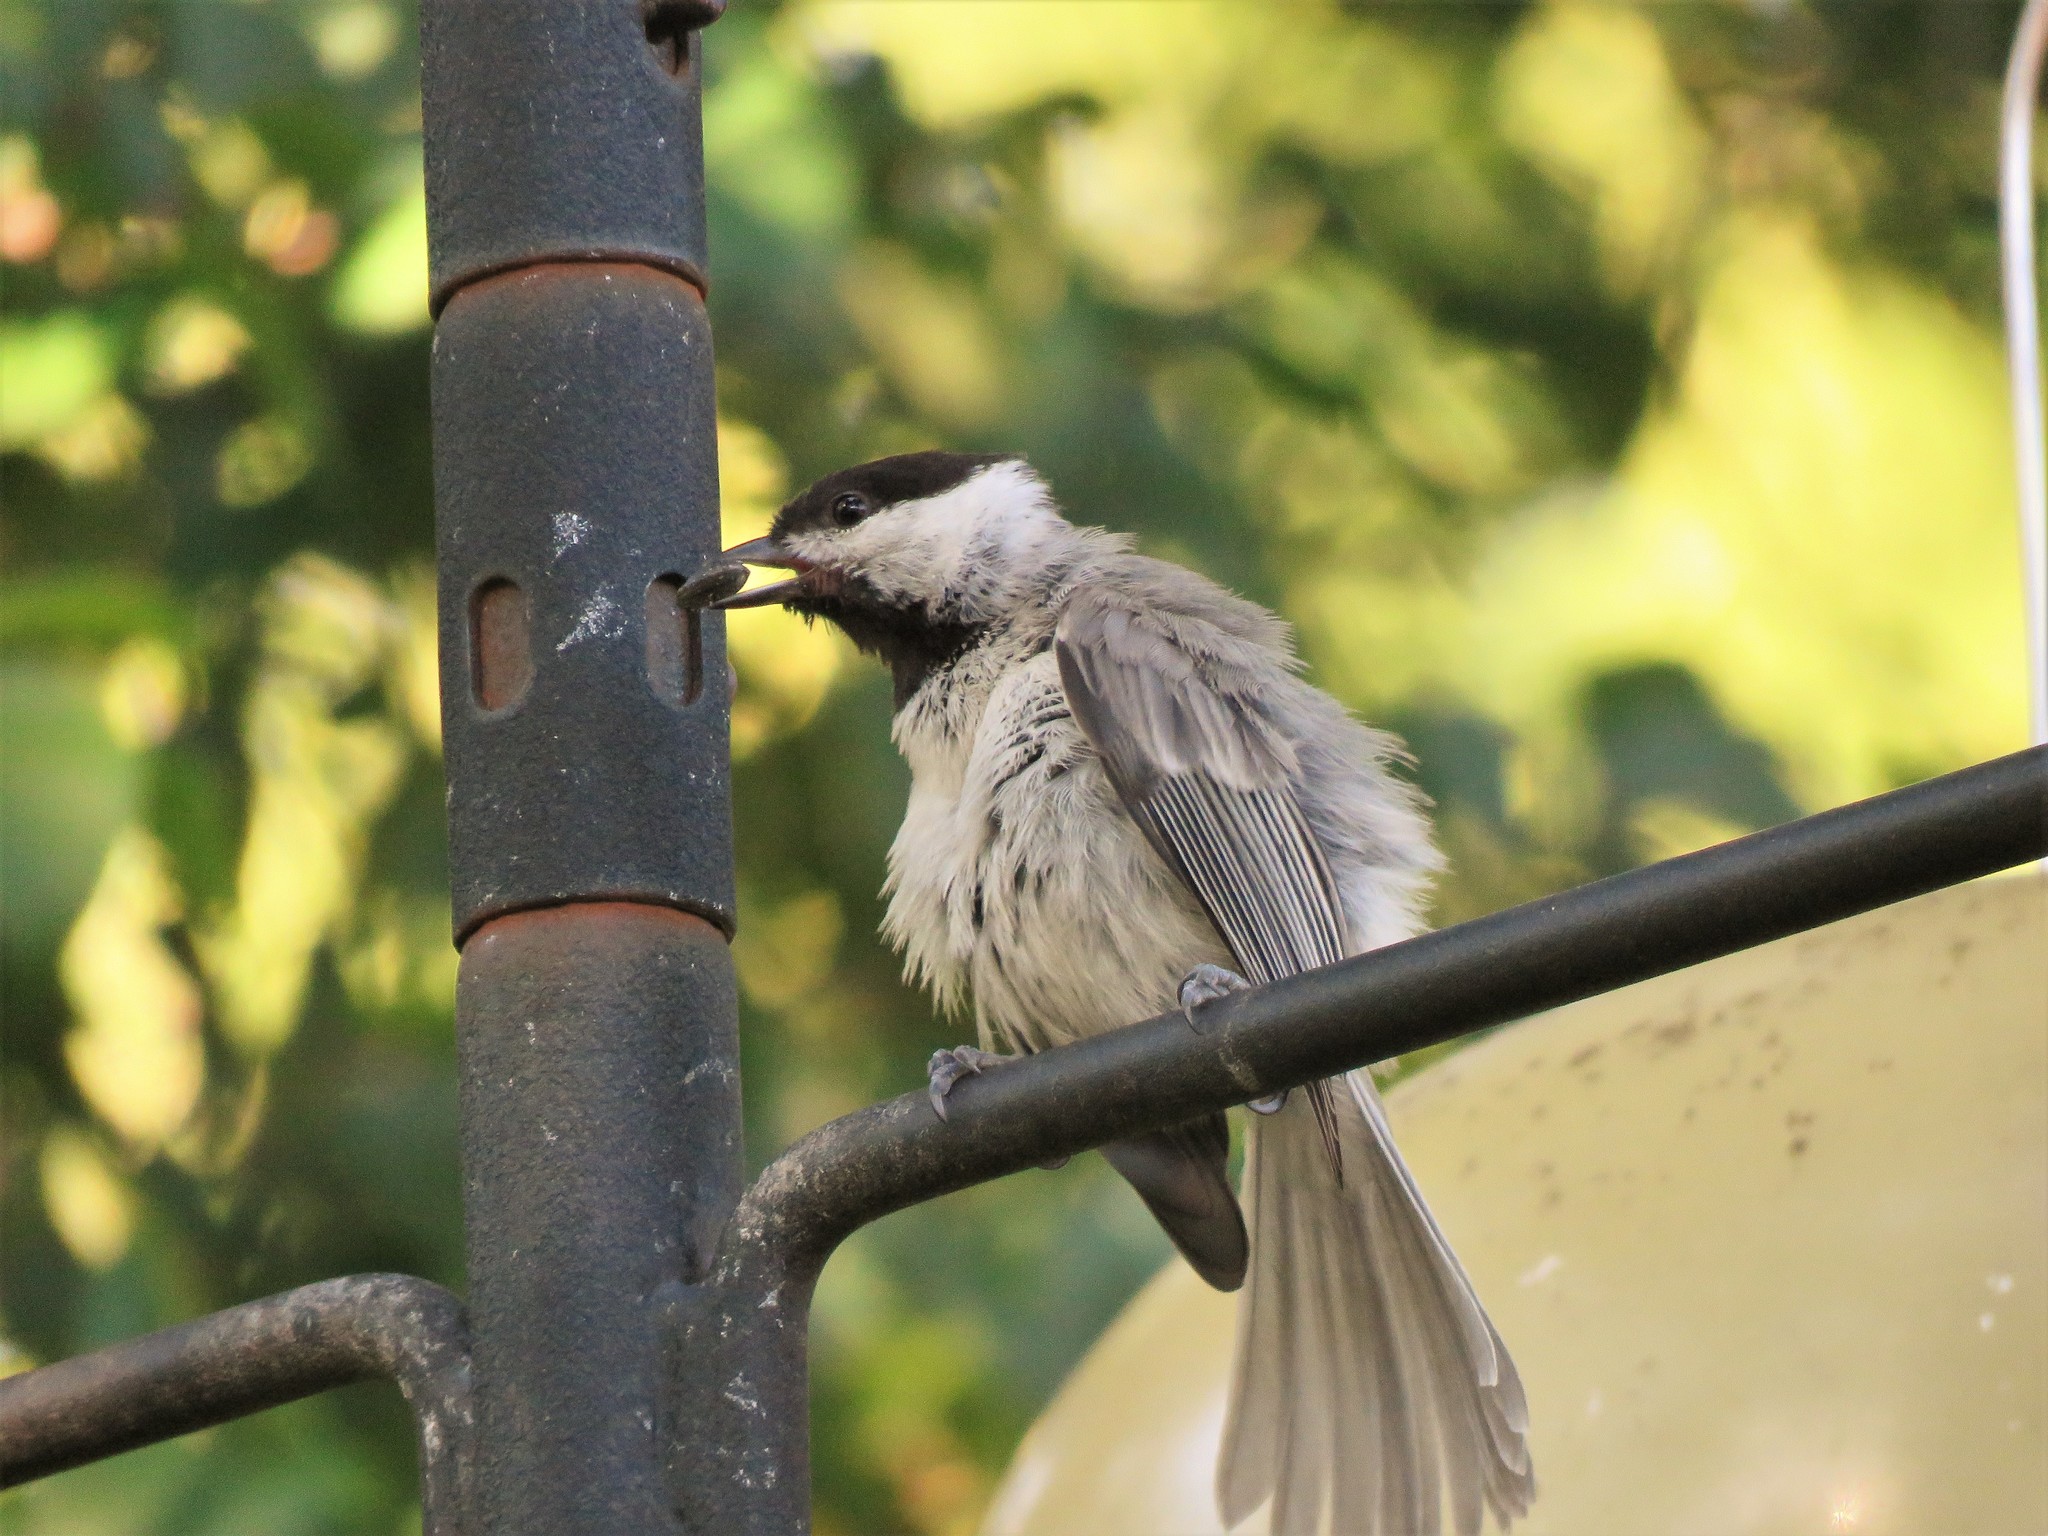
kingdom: Animalia
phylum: Chordata
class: Aves
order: Passeriformes
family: Paridae
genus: Poecile
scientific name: Poecile carolinensis
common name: Carolina chickadee
